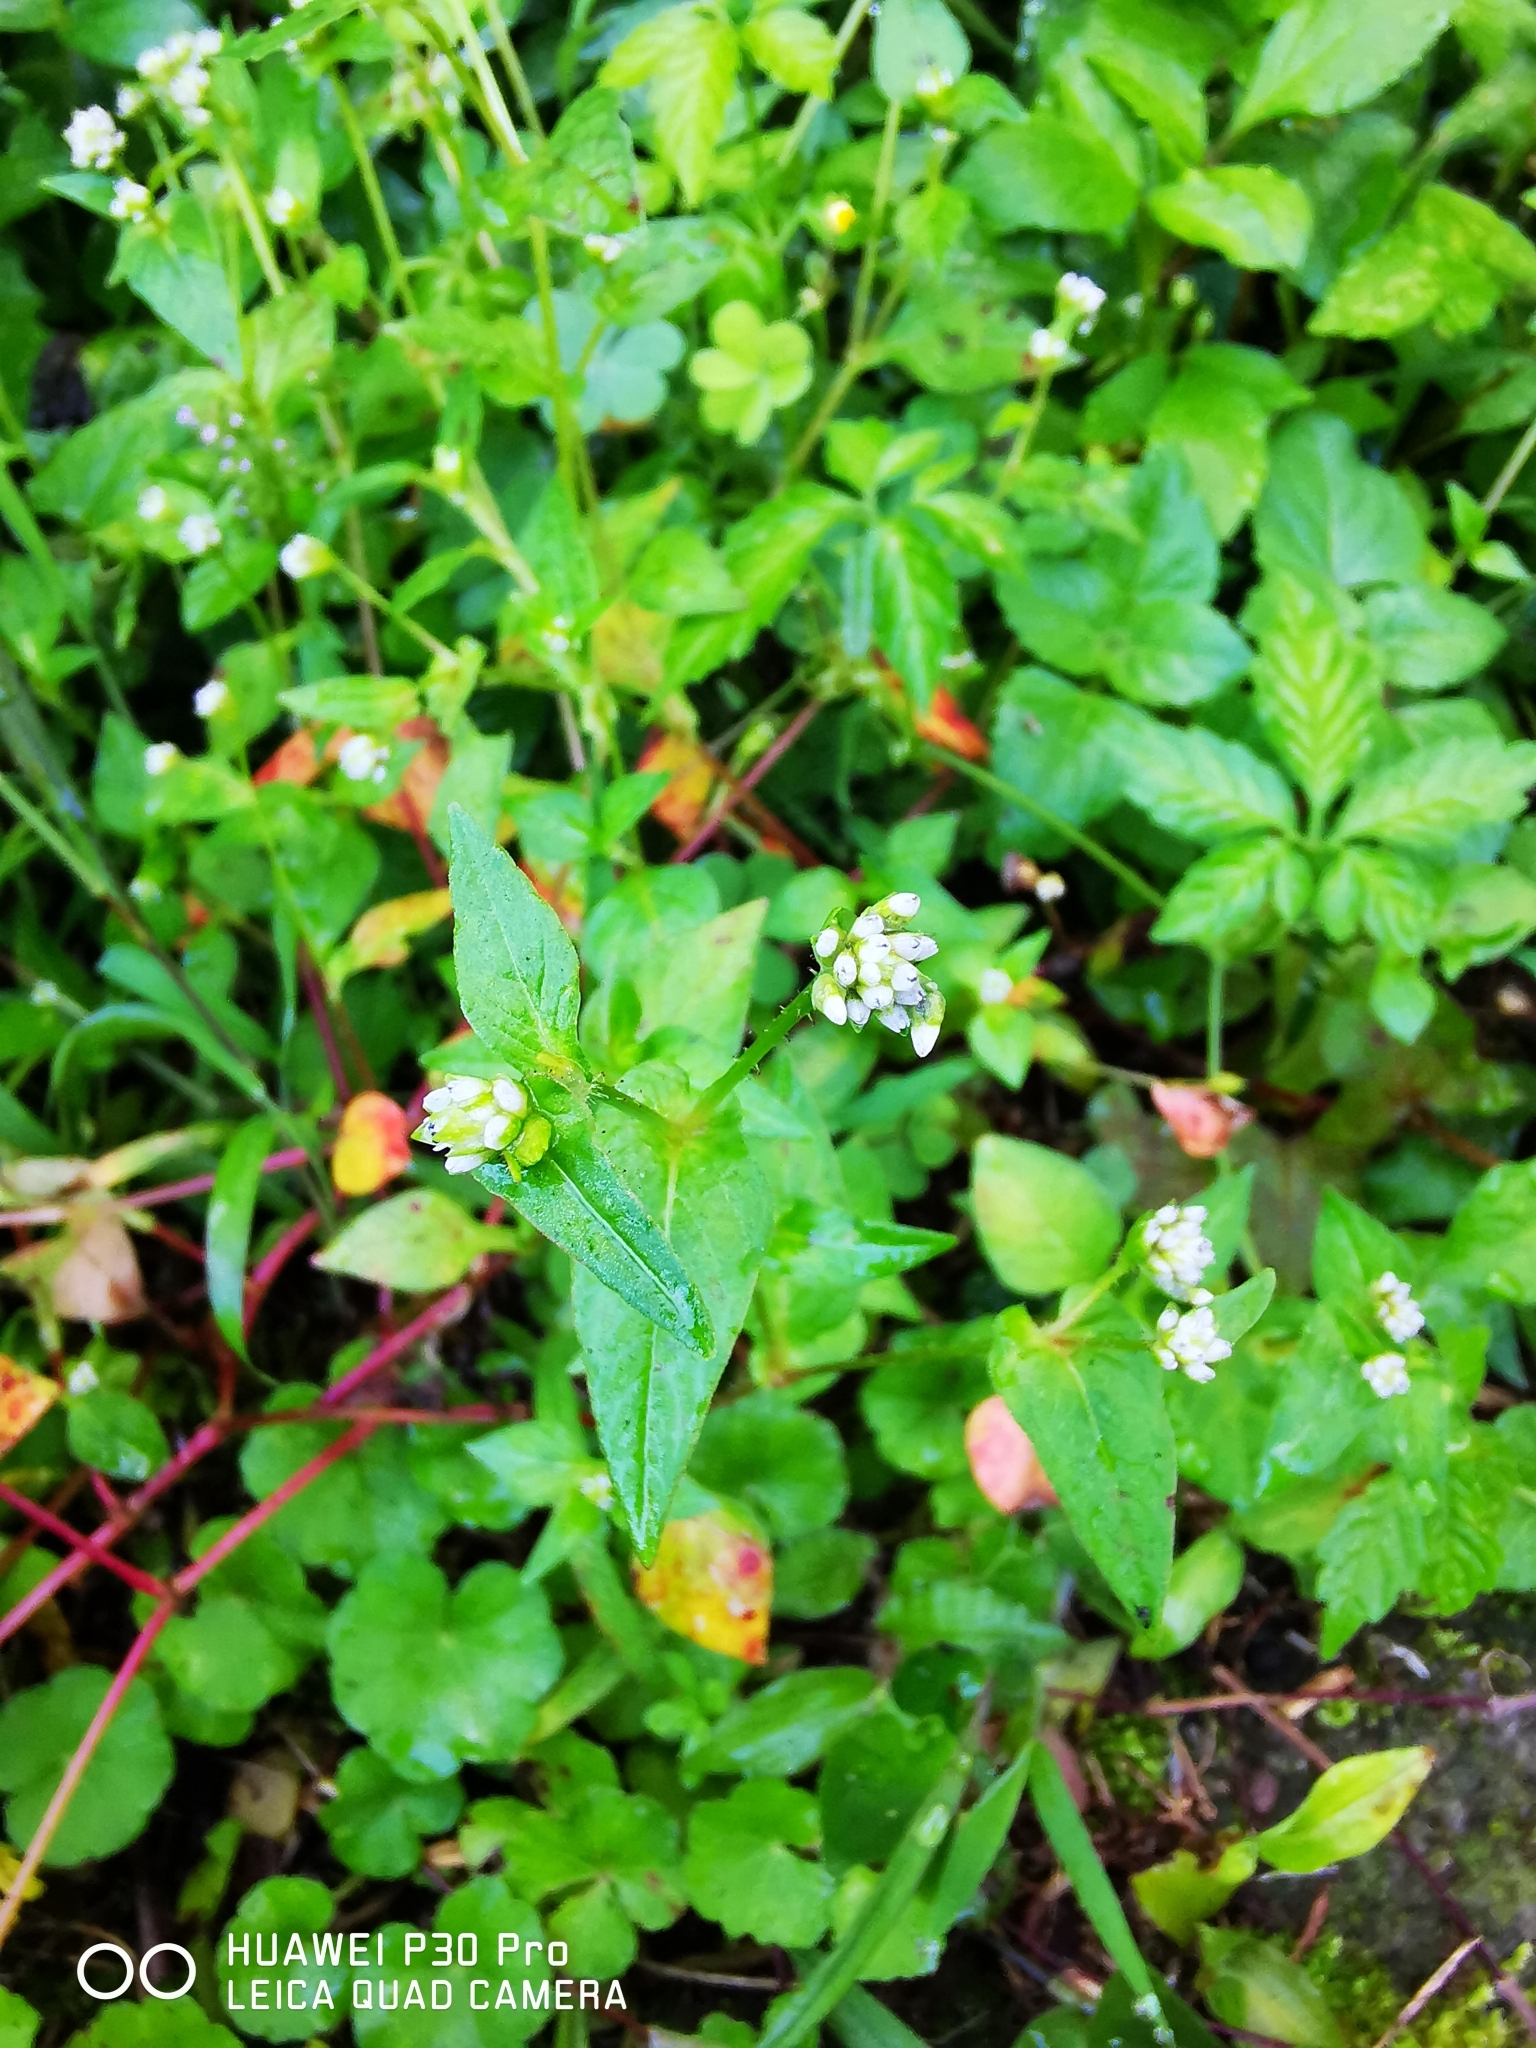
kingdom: Plantae
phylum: Tracheophyta
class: Magnoliopsida
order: Caryophyllales
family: Polygonaceae
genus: Persicaria
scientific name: Persicaria nepalensis
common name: Nepal persicaria
